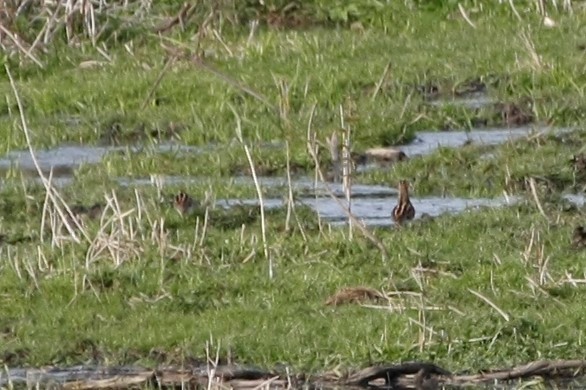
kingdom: Animalia
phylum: Chordata
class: Aves
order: Charadriiformes
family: Scolopacidae
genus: Gallinago
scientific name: Gallinago gallinago
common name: Common snipe
